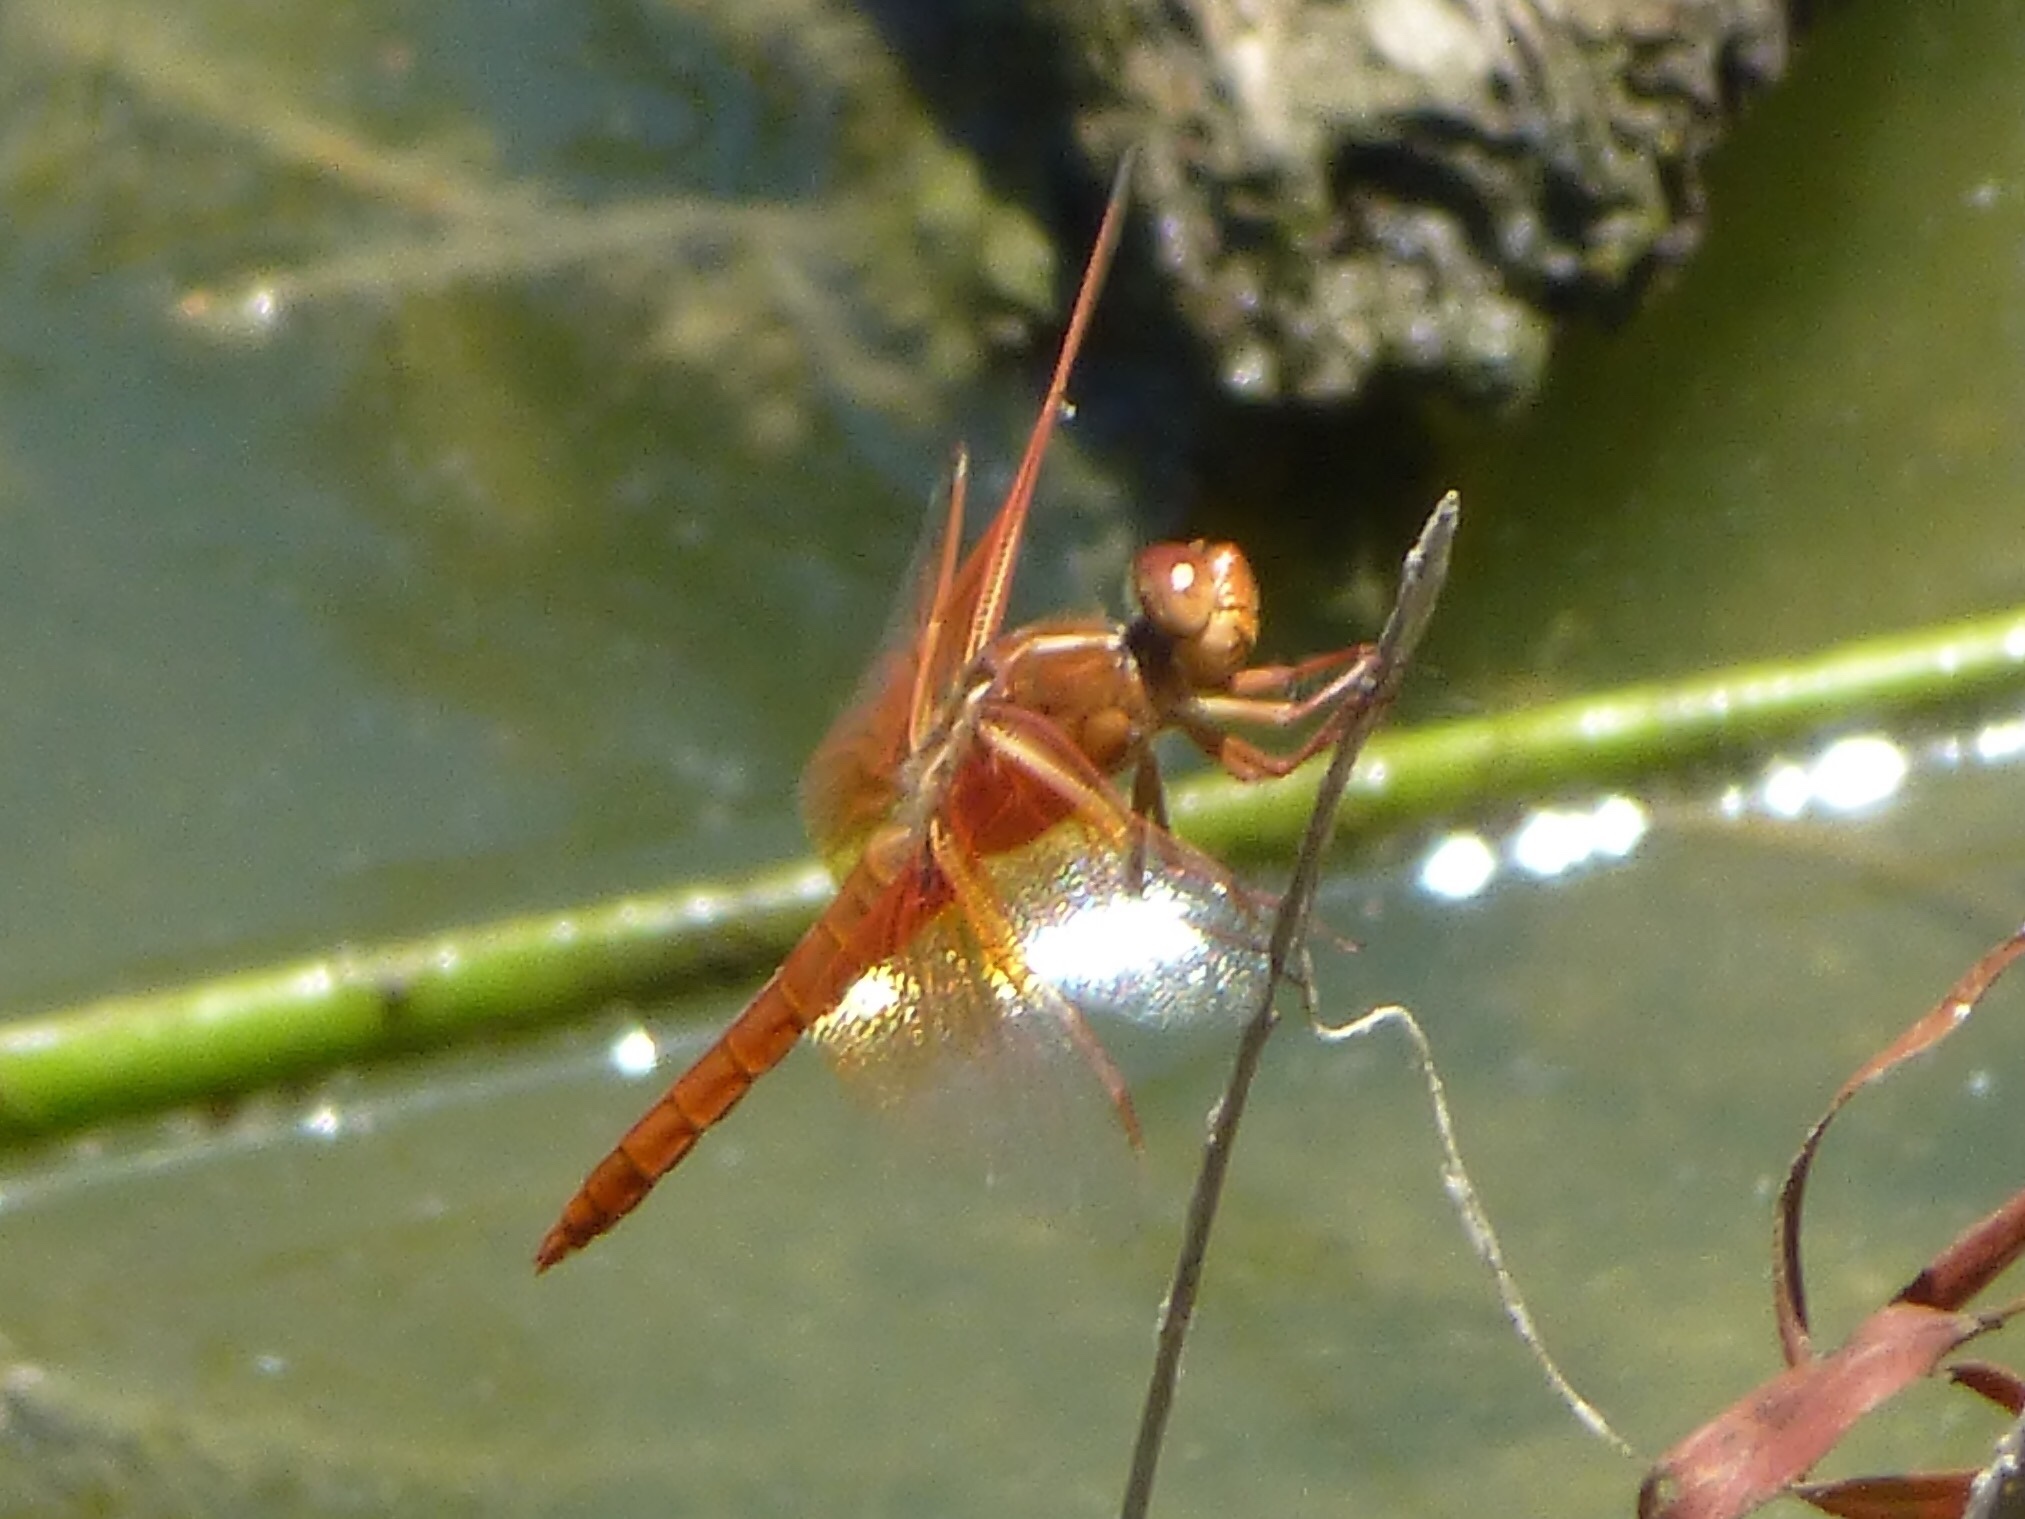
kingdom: Animalia
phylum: Arthropoda
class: Insecta
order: Odonata
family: Libellulidae
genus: Libellula
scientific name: Libellula saturata
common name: Flame skimmer
